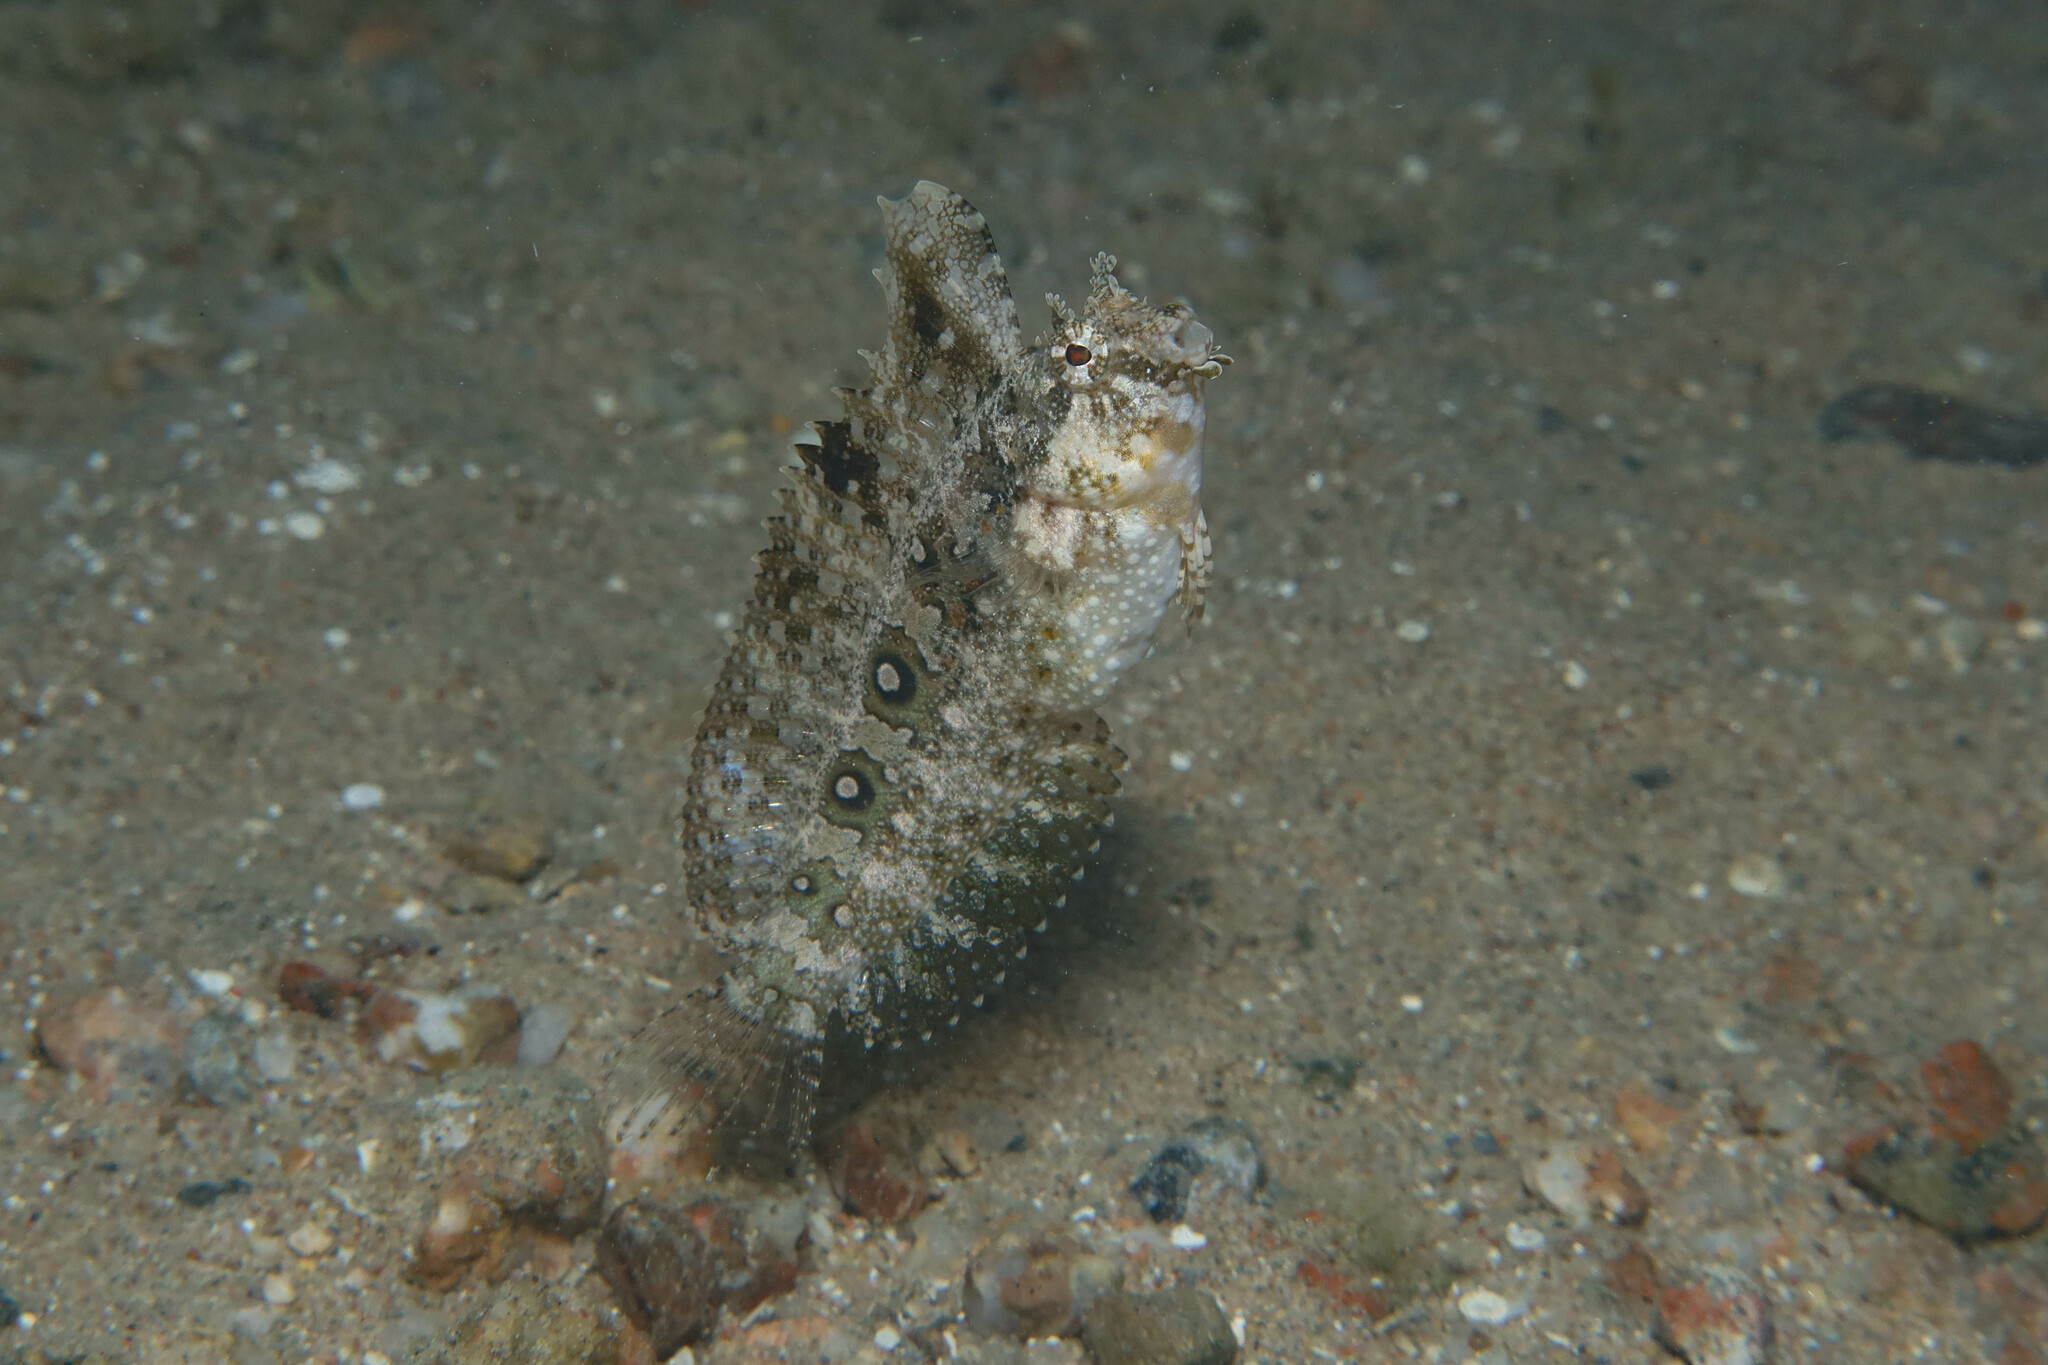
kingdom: Animalia
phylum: Chordata
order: Perciformes
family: Blenniidae
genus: Petroscirtes
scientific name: Petroscirtes mitratus
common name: Floral blenny
